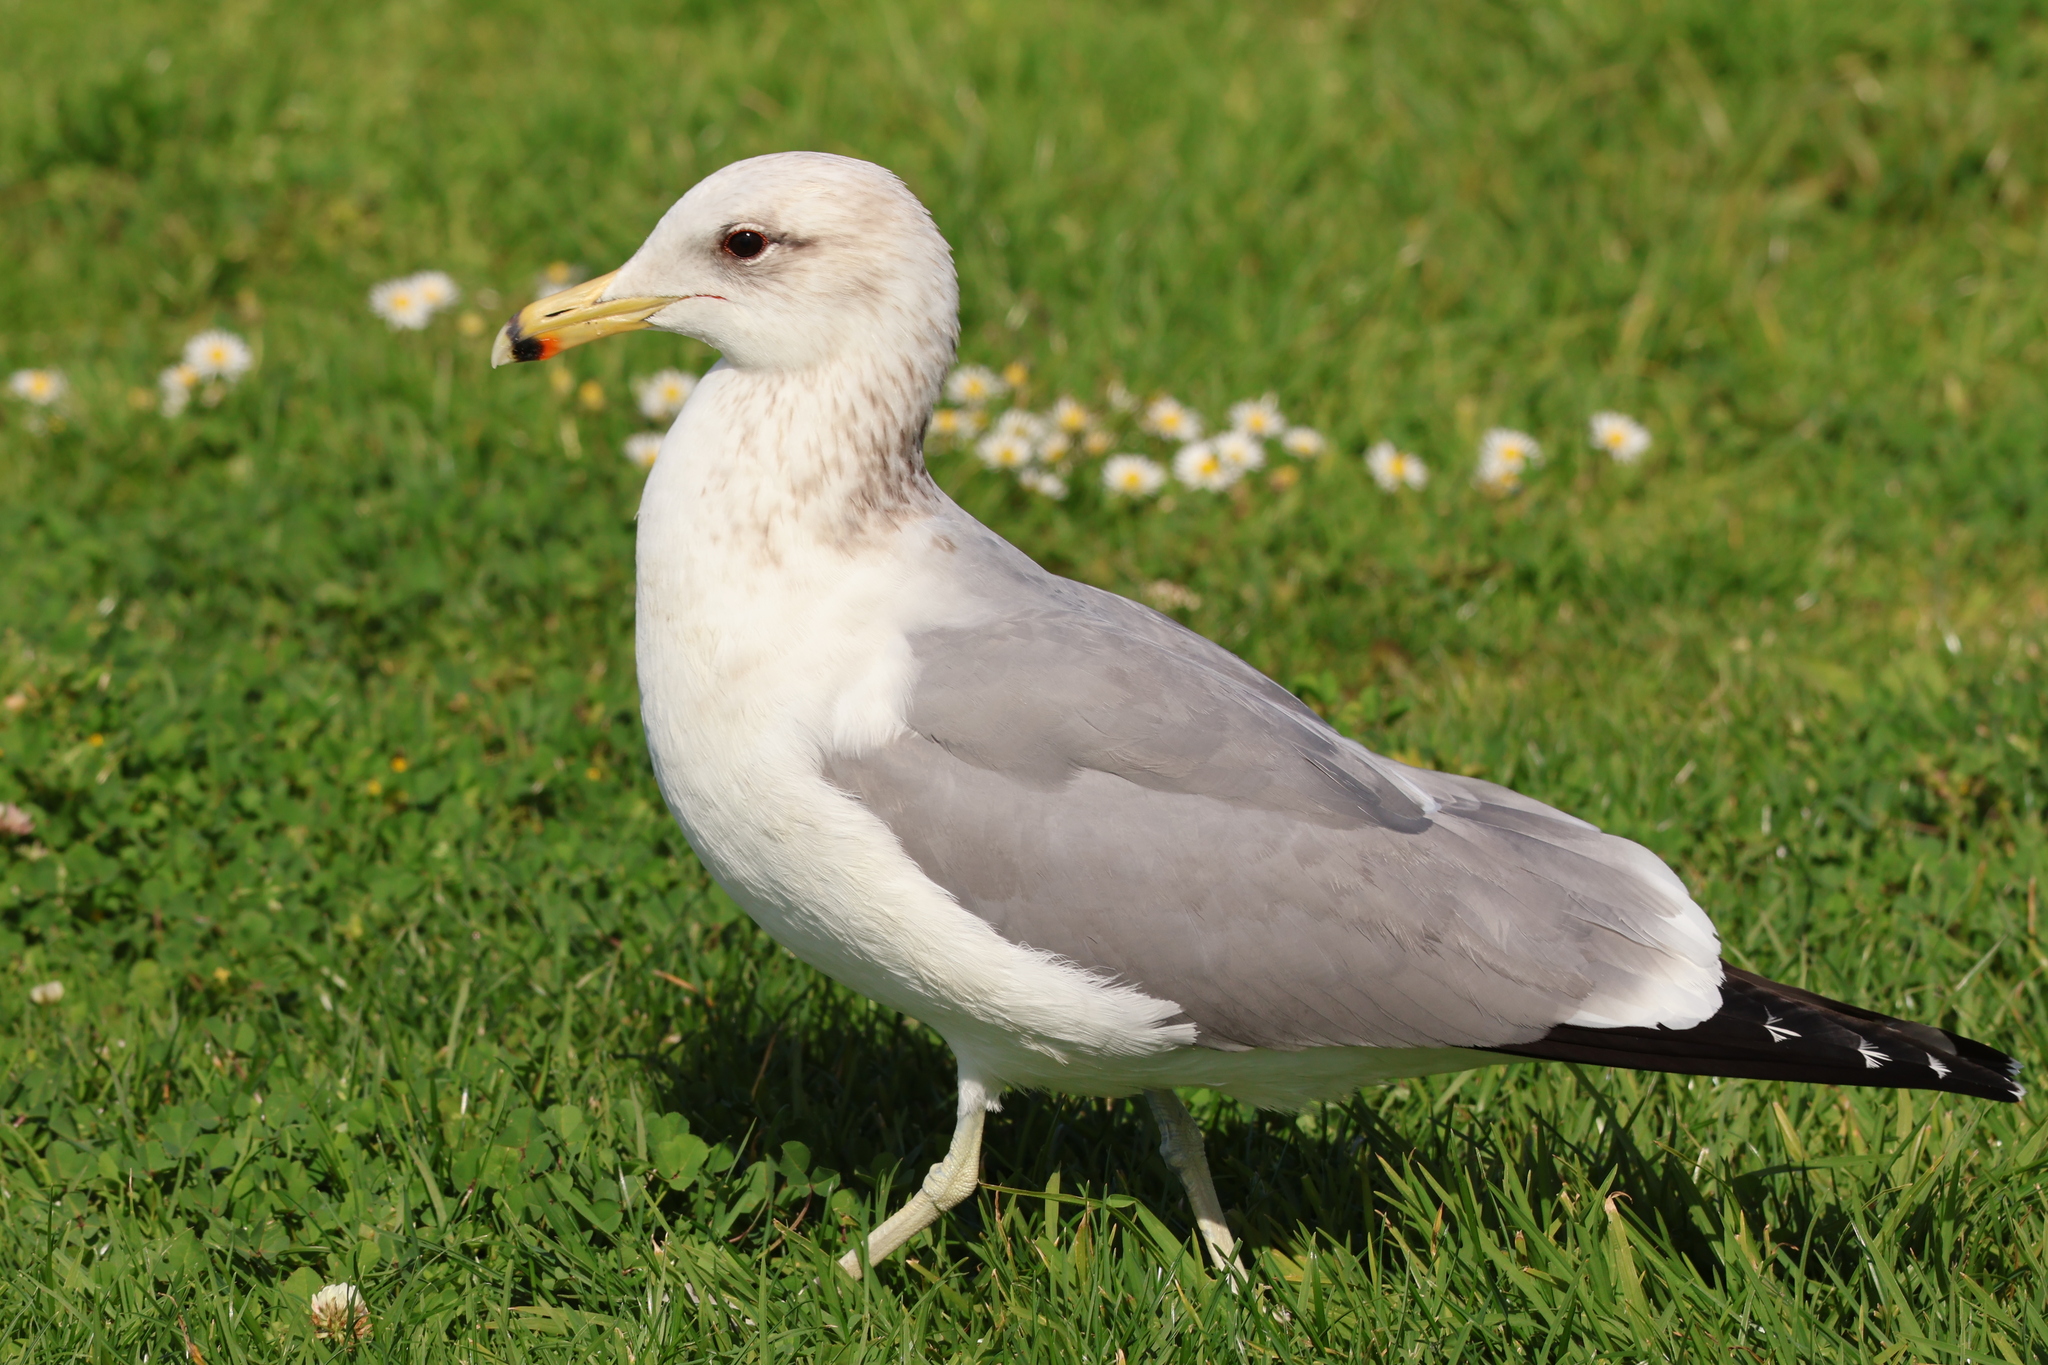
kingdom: Animalia
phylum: Chordata
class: Aves
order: Charadriiformes
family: Laridae
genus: Larus
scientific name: Larus californicus
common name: California gull
